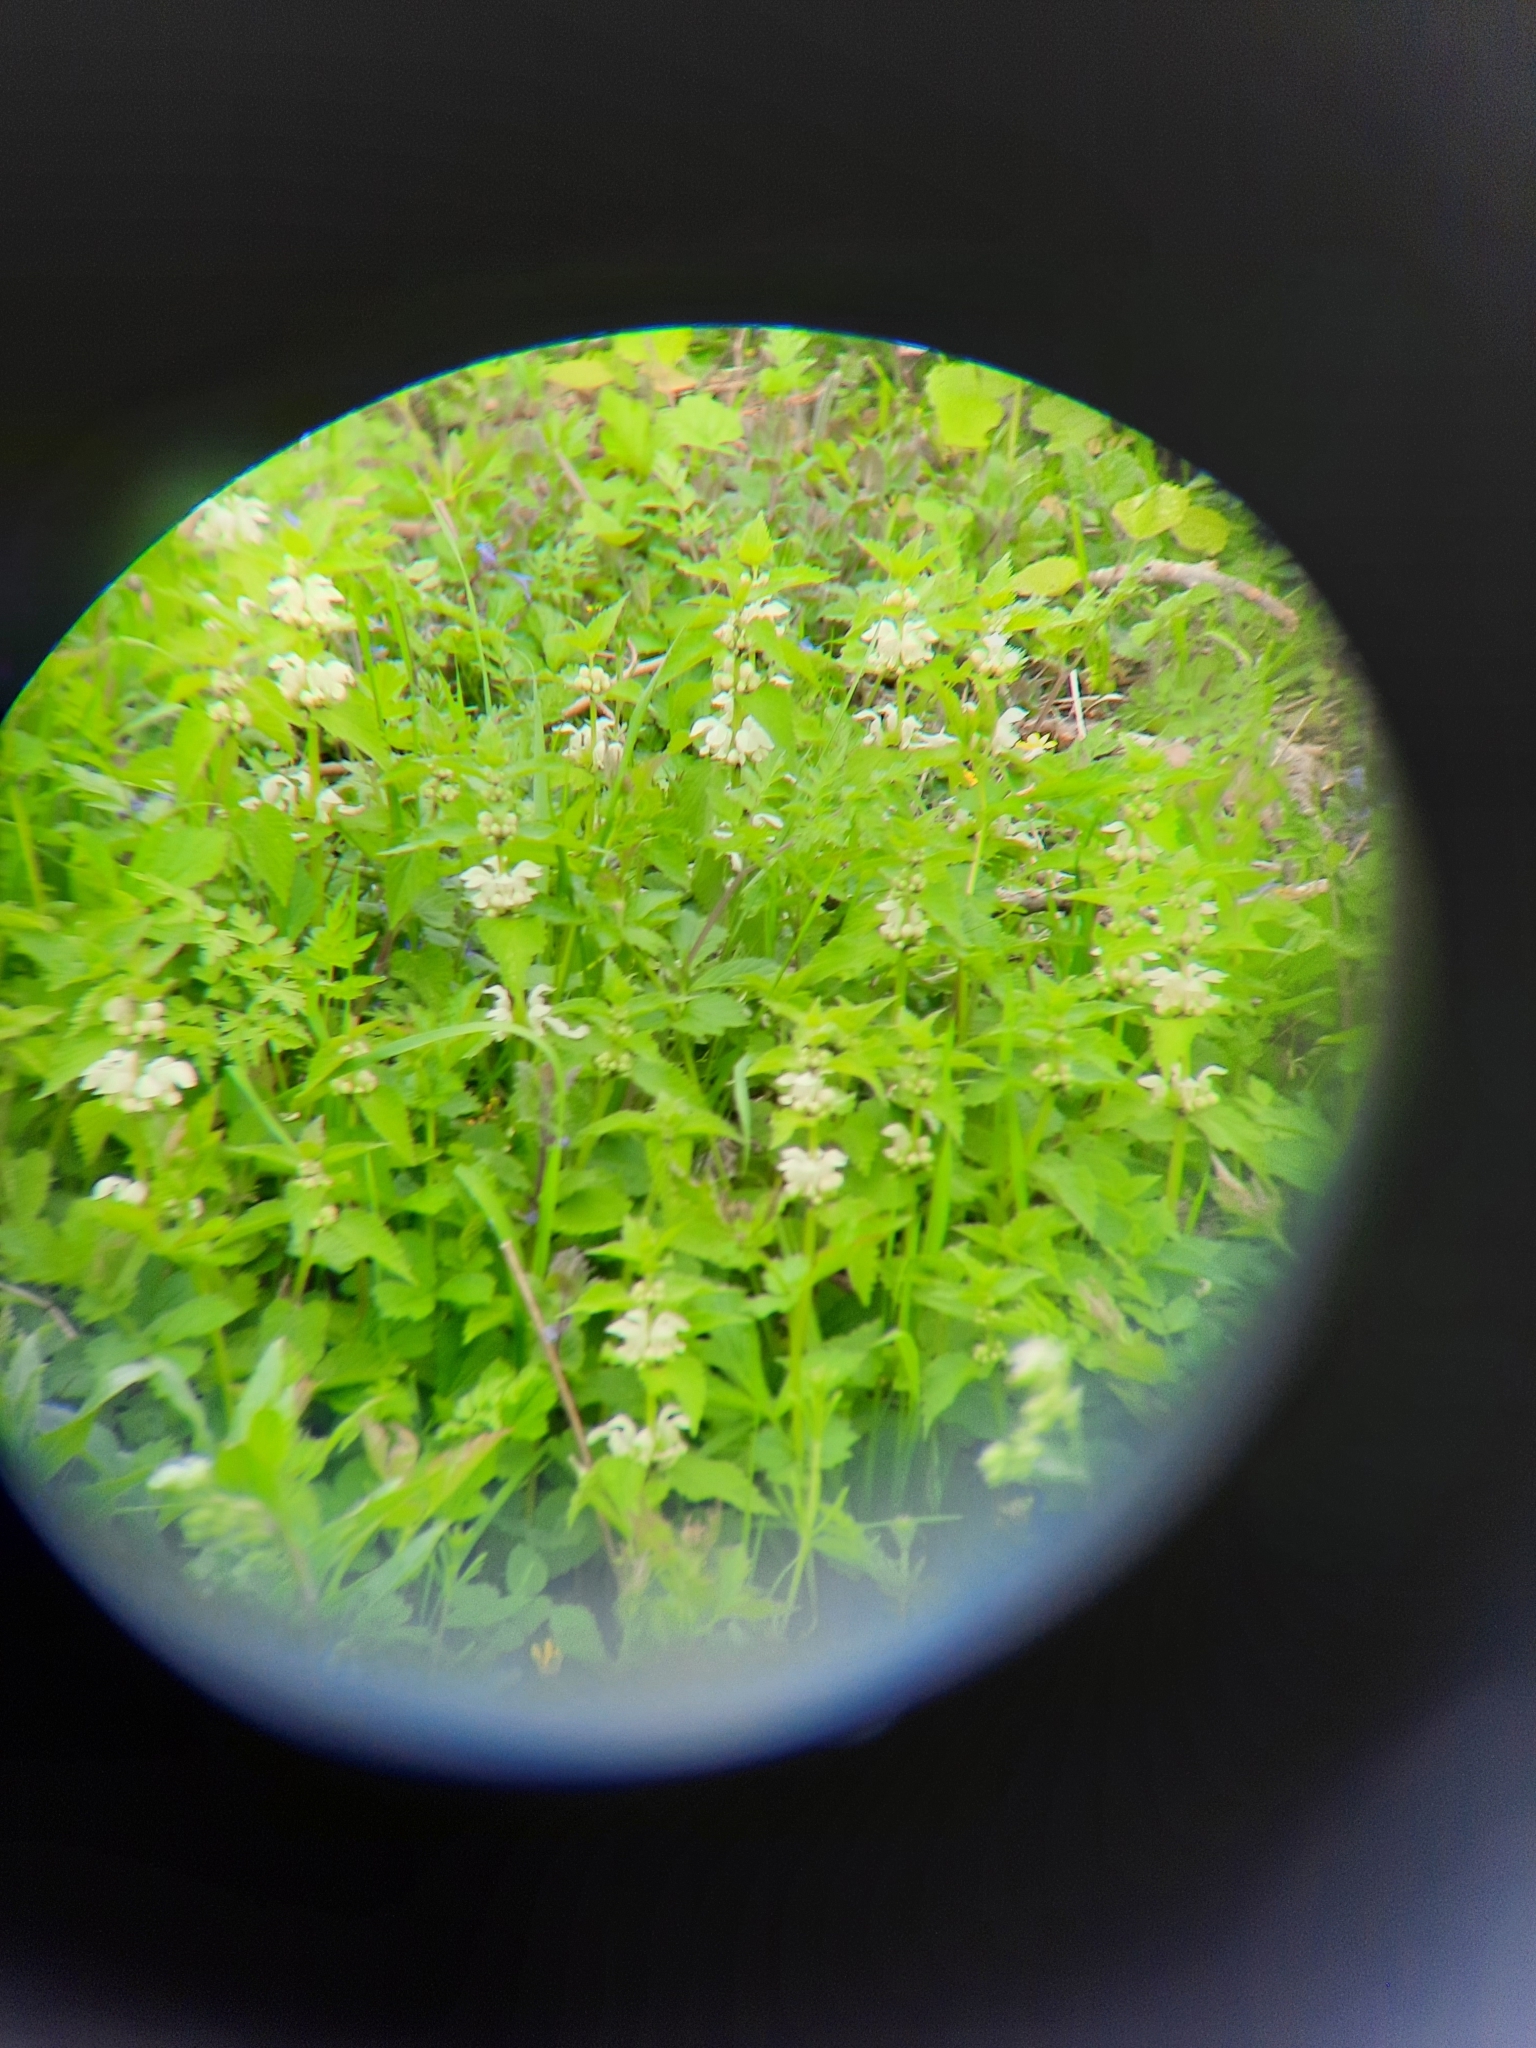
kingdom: Plantae
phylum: Tracheophyta
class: Magnoliopsida
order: Lamiales
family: Lamiaceae
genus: Lamium
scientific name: Lamium album
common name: White dead-nettle
